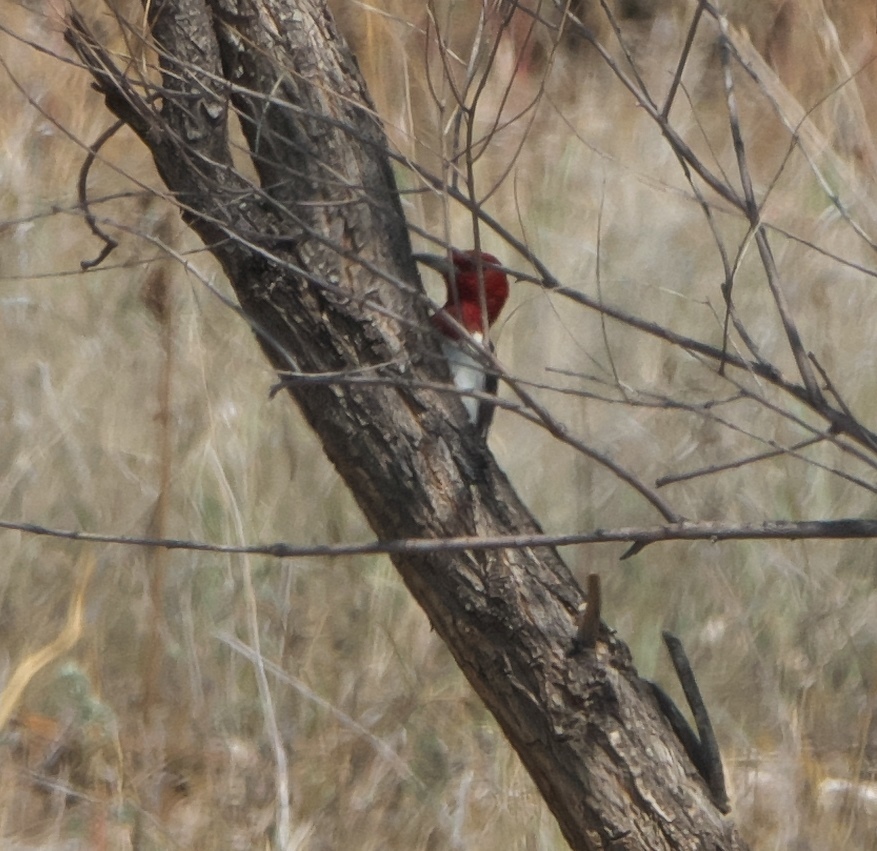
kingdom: Animalia
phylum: Chordata
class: Aves
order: Piciformes
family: Picidae
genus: Melanerpes
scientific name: Melanerpes erythrocephalus
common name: Red-headed woodpecker
